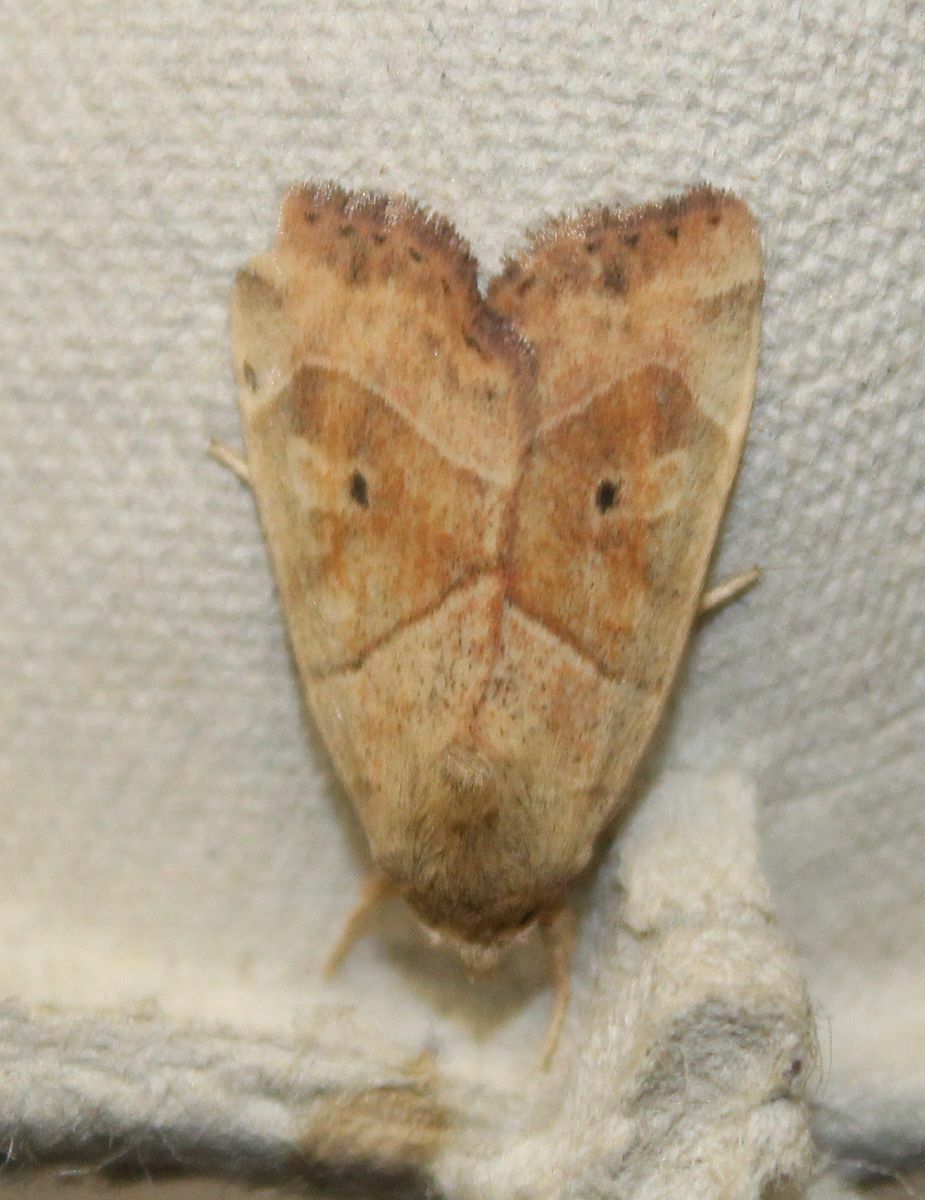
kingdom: Animalia
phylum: Arthropoda
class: Insecta
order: Lepidoptera
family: Noctuidae
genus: Cosmia
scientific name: Cosmia trapezina
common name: Dun-bar
